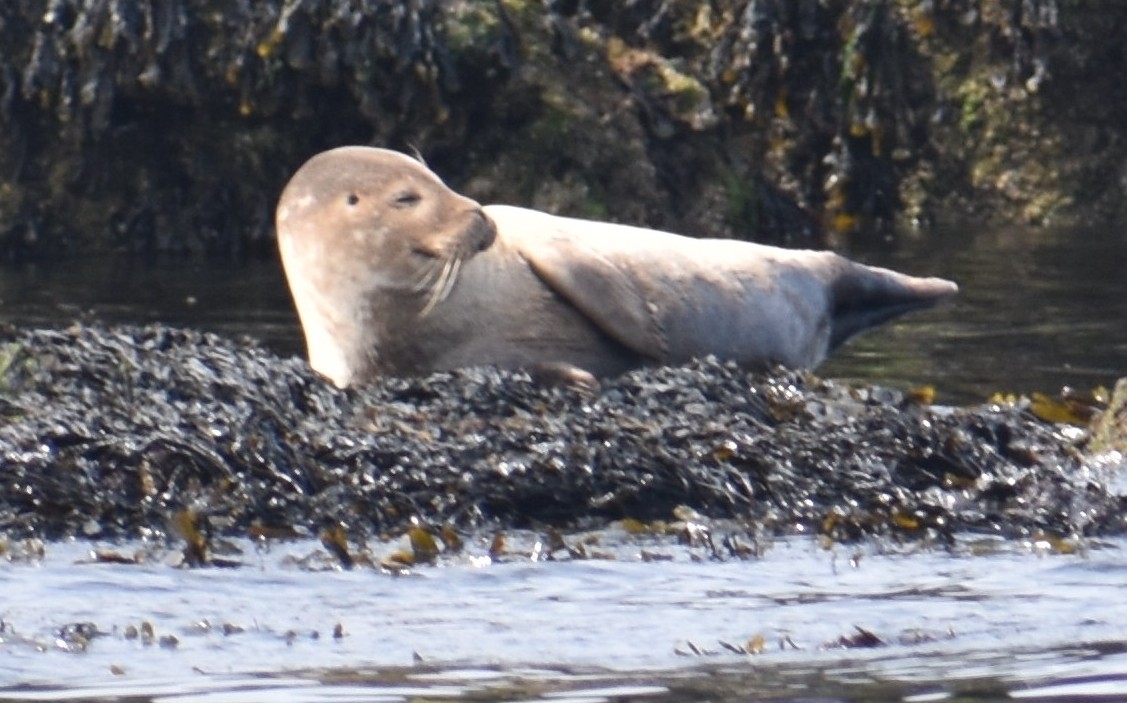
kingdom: Animalia
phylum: Chordata
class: Mammalia
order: Carnivora
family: Phocidae
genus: Halichoerus
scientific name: Halichoerus grypus
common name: Grey seal
